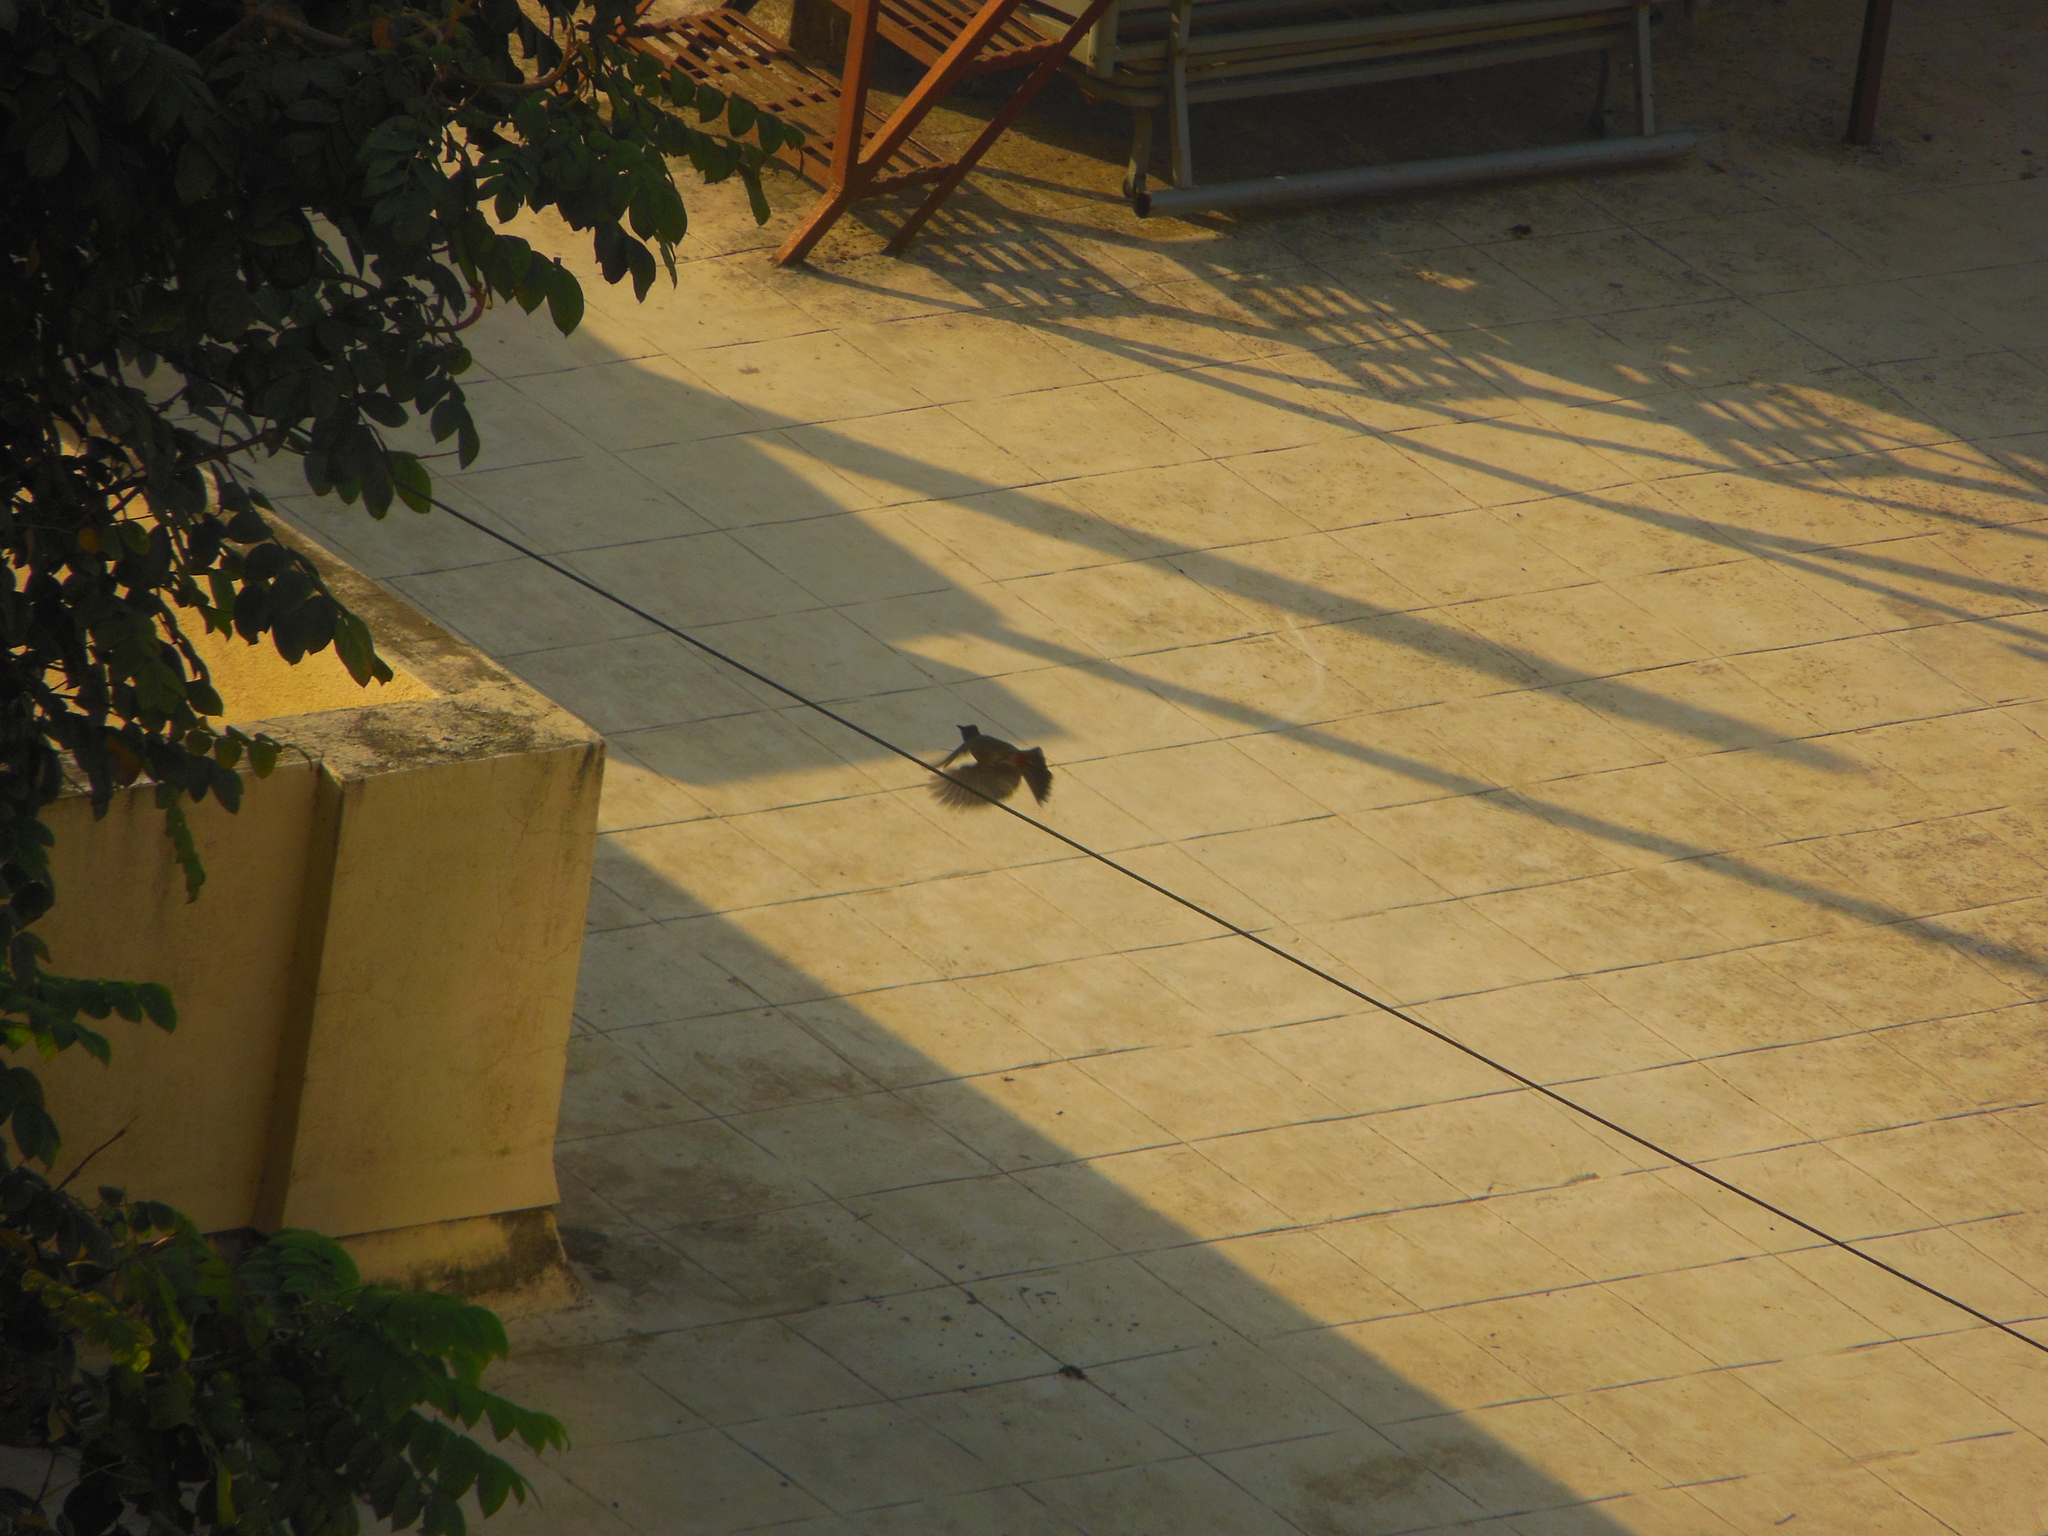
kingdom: Animalia
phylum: Chordata
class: Aves
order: Passeriformes
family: Pycnonotidae
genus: Pycnonotus
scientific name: Pycnonotus cafer
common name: Red-vented bulbul
